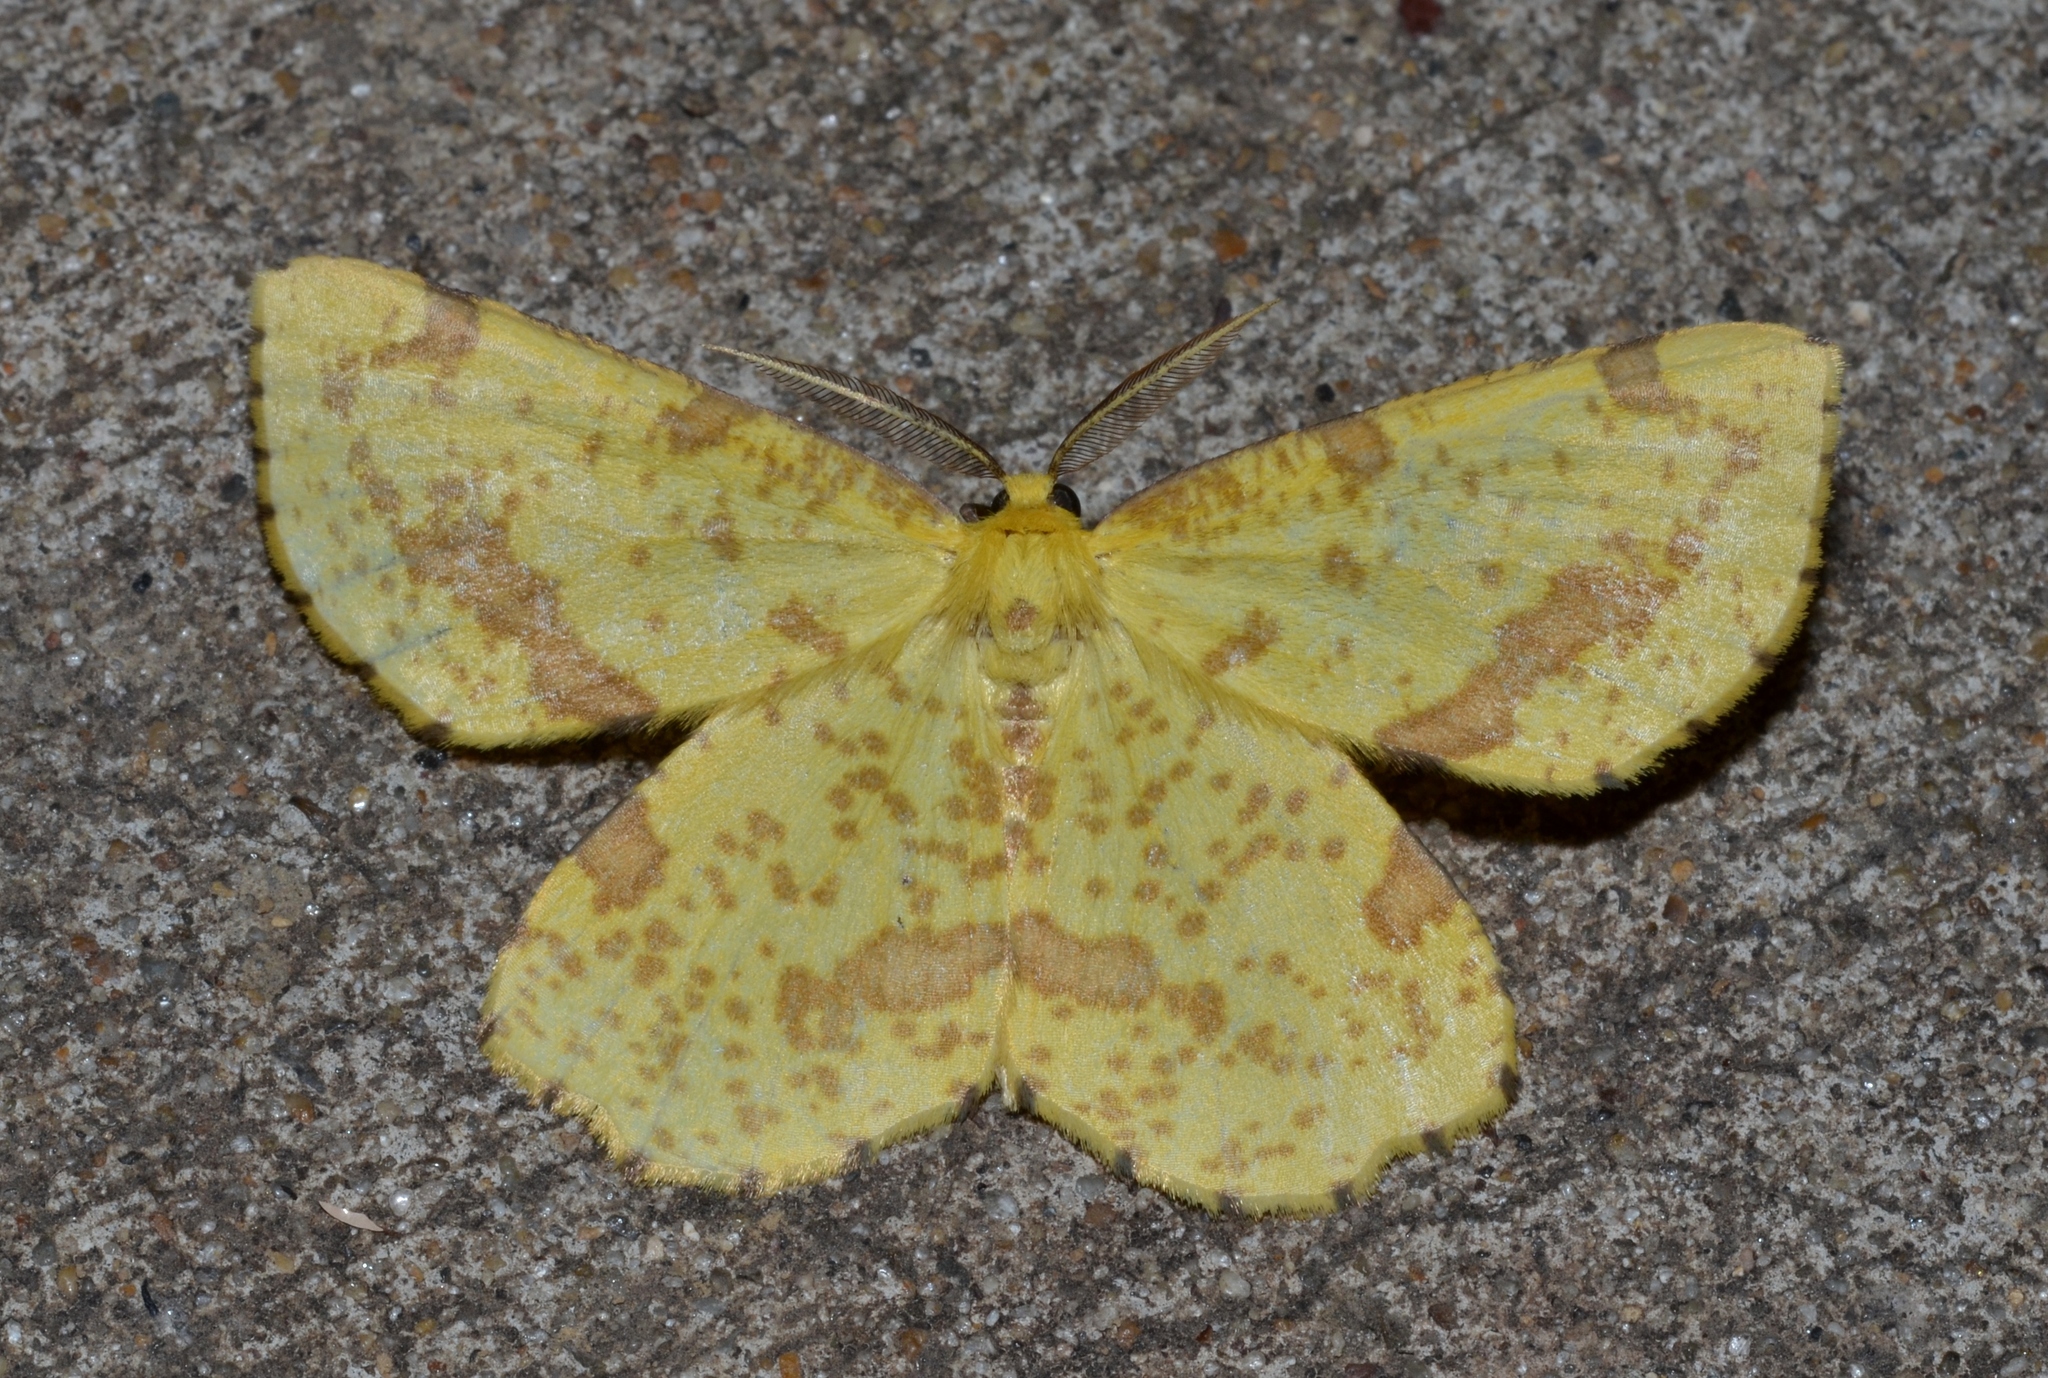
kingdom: Animalia
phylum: Arthropoda
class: Insecta
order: Lepidoptera
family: Geometridae
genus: Xanthotype
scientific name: Xanthotype
